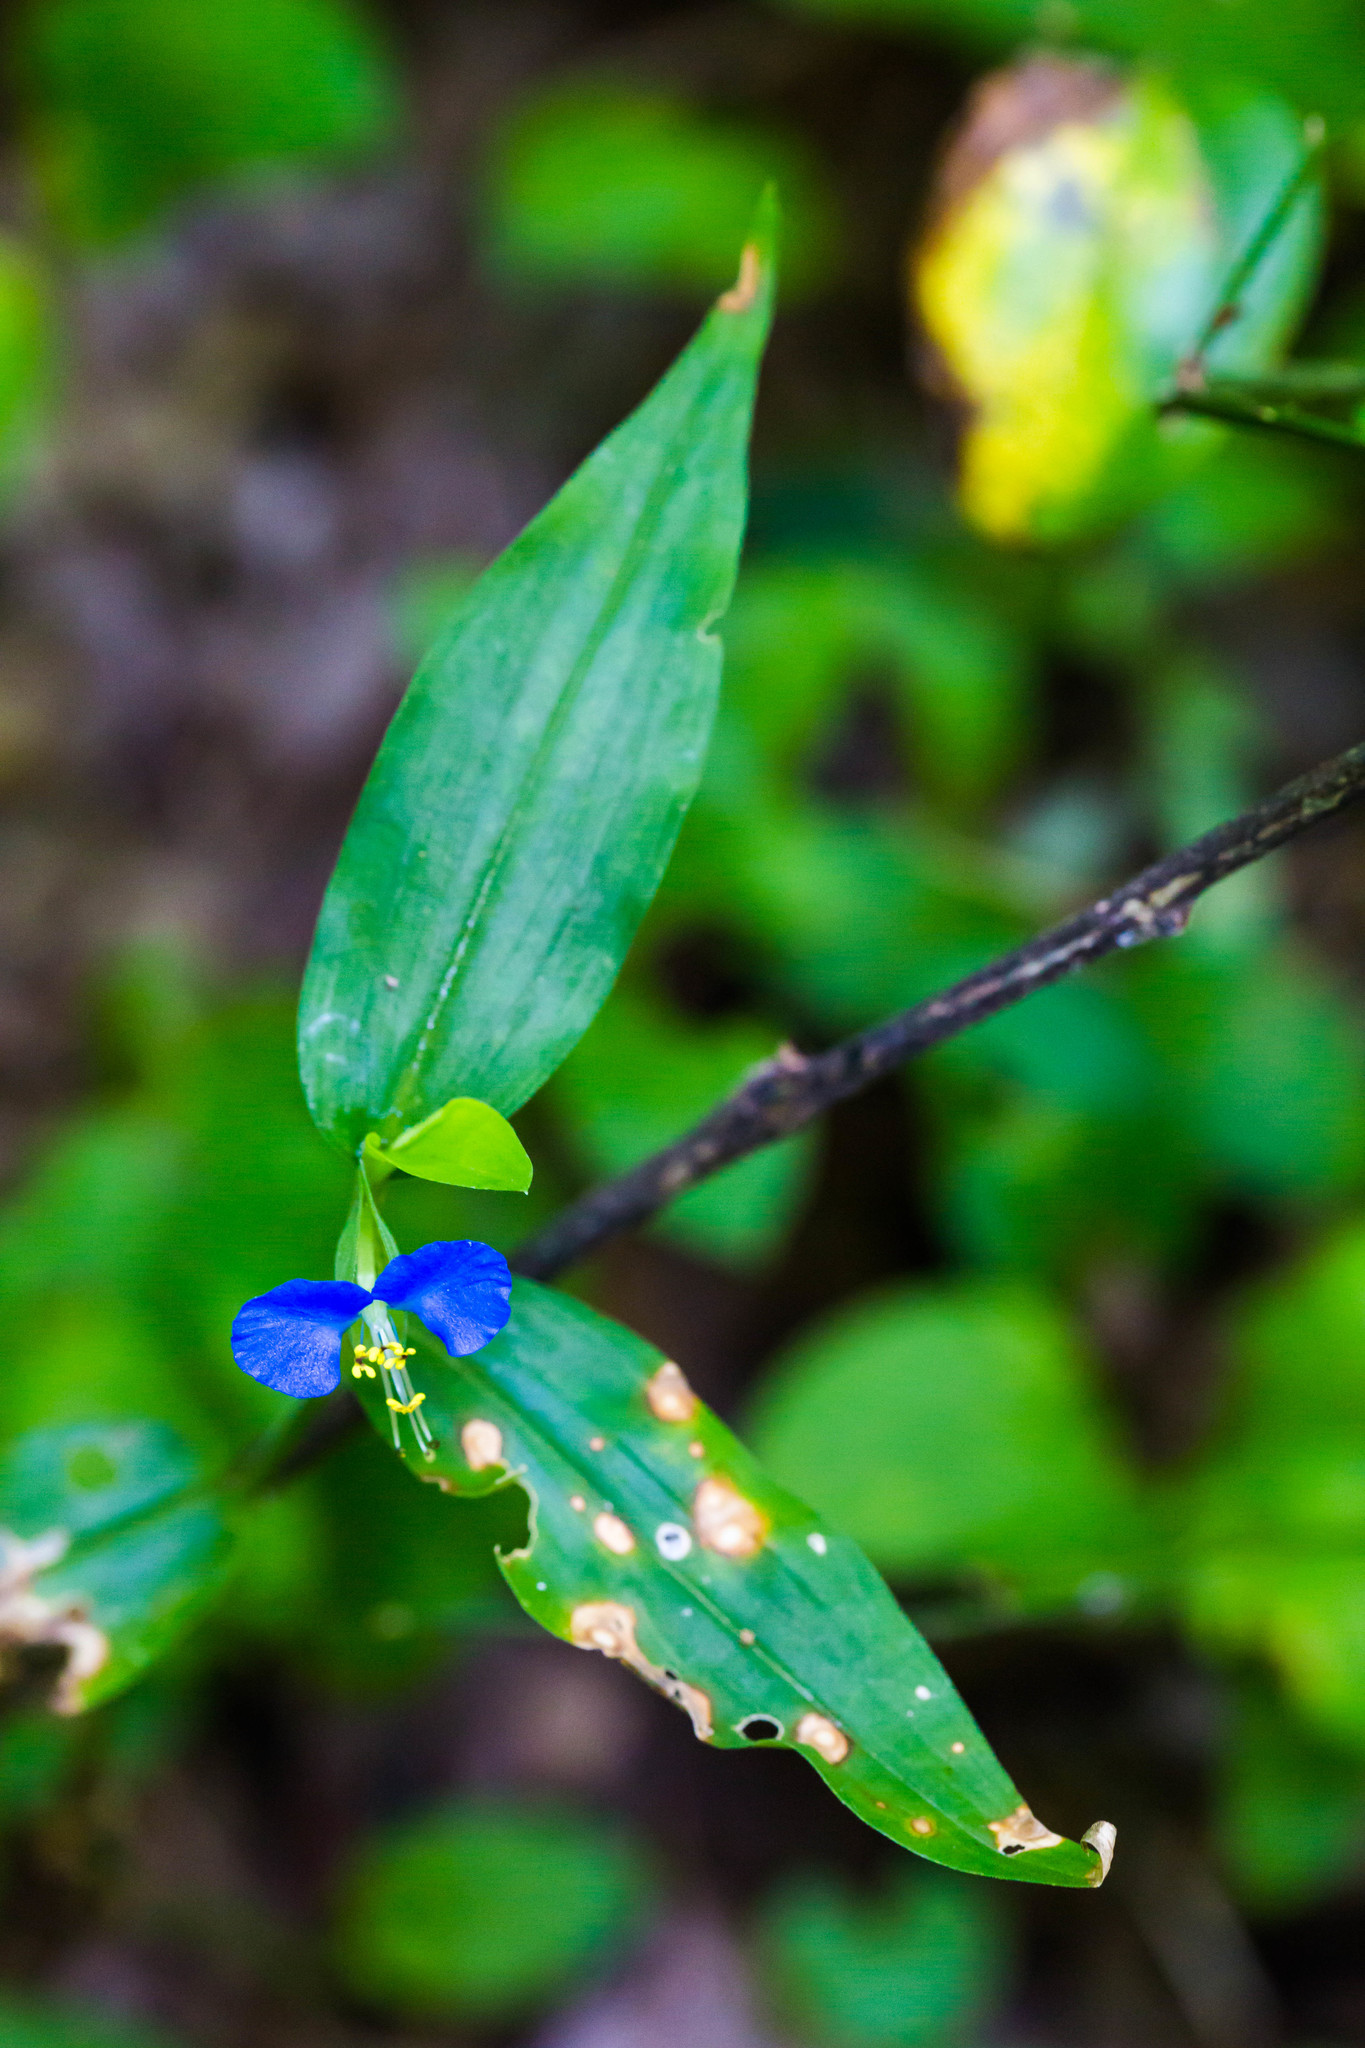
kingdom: Plantae
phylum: Tracheophyta
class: Liliopsida
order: Commelinales
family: Commelinaceae
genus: Commelina
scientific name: Commelina communis
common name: Asiatic dayflower
